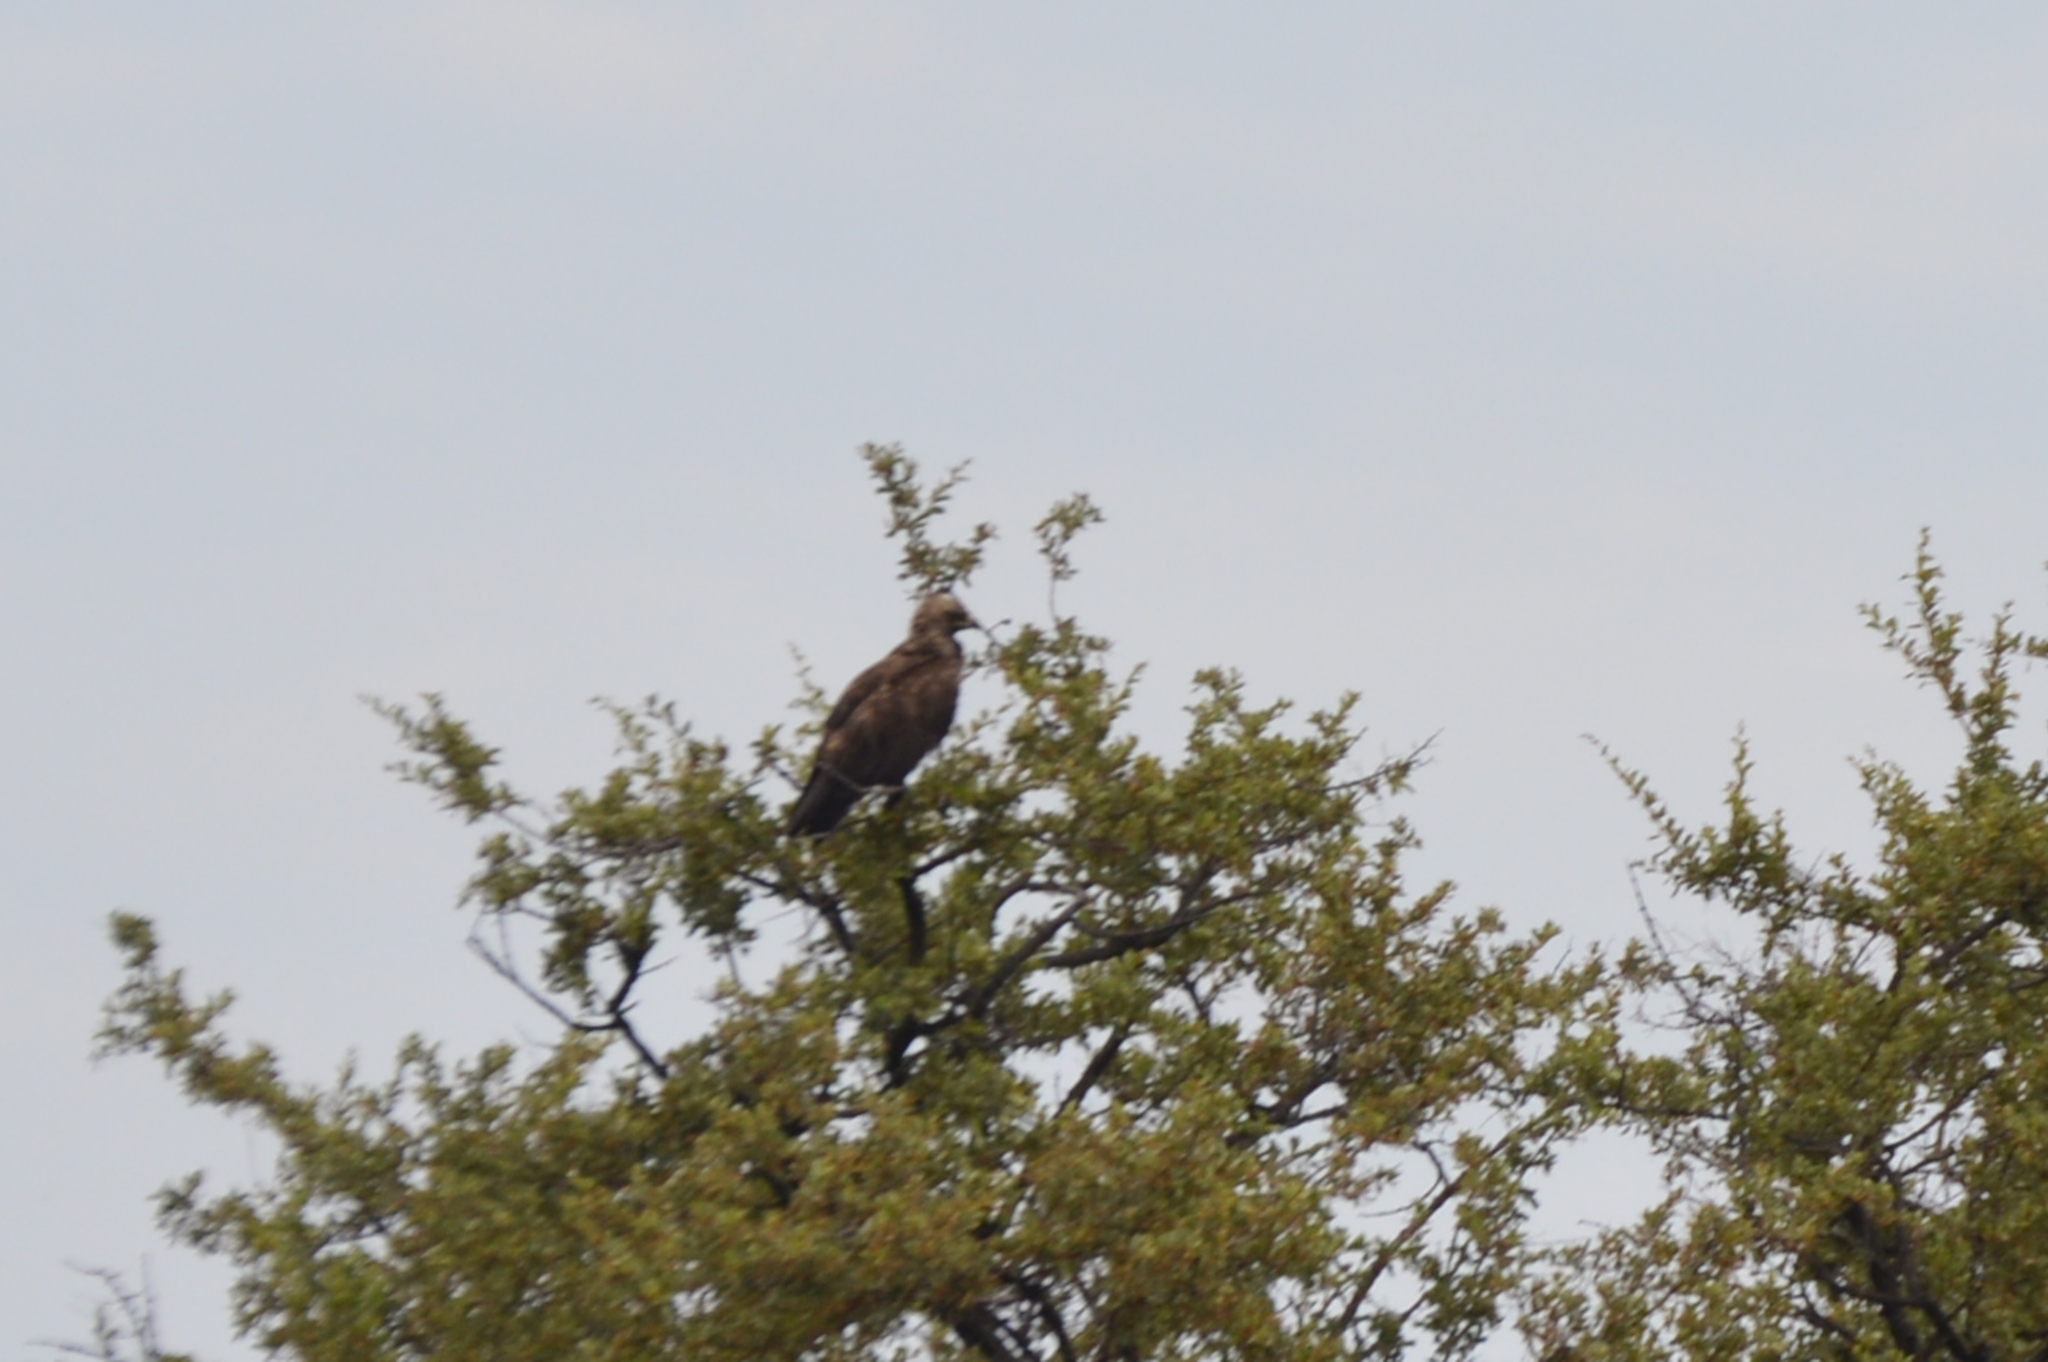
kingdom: Animalia
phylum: Chordata
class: Aves
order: Accipitriformes
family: Accipitridae
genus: Hieraaetus
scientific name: Hieraaetus wahlbergi
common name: Wahlberg's eagle
